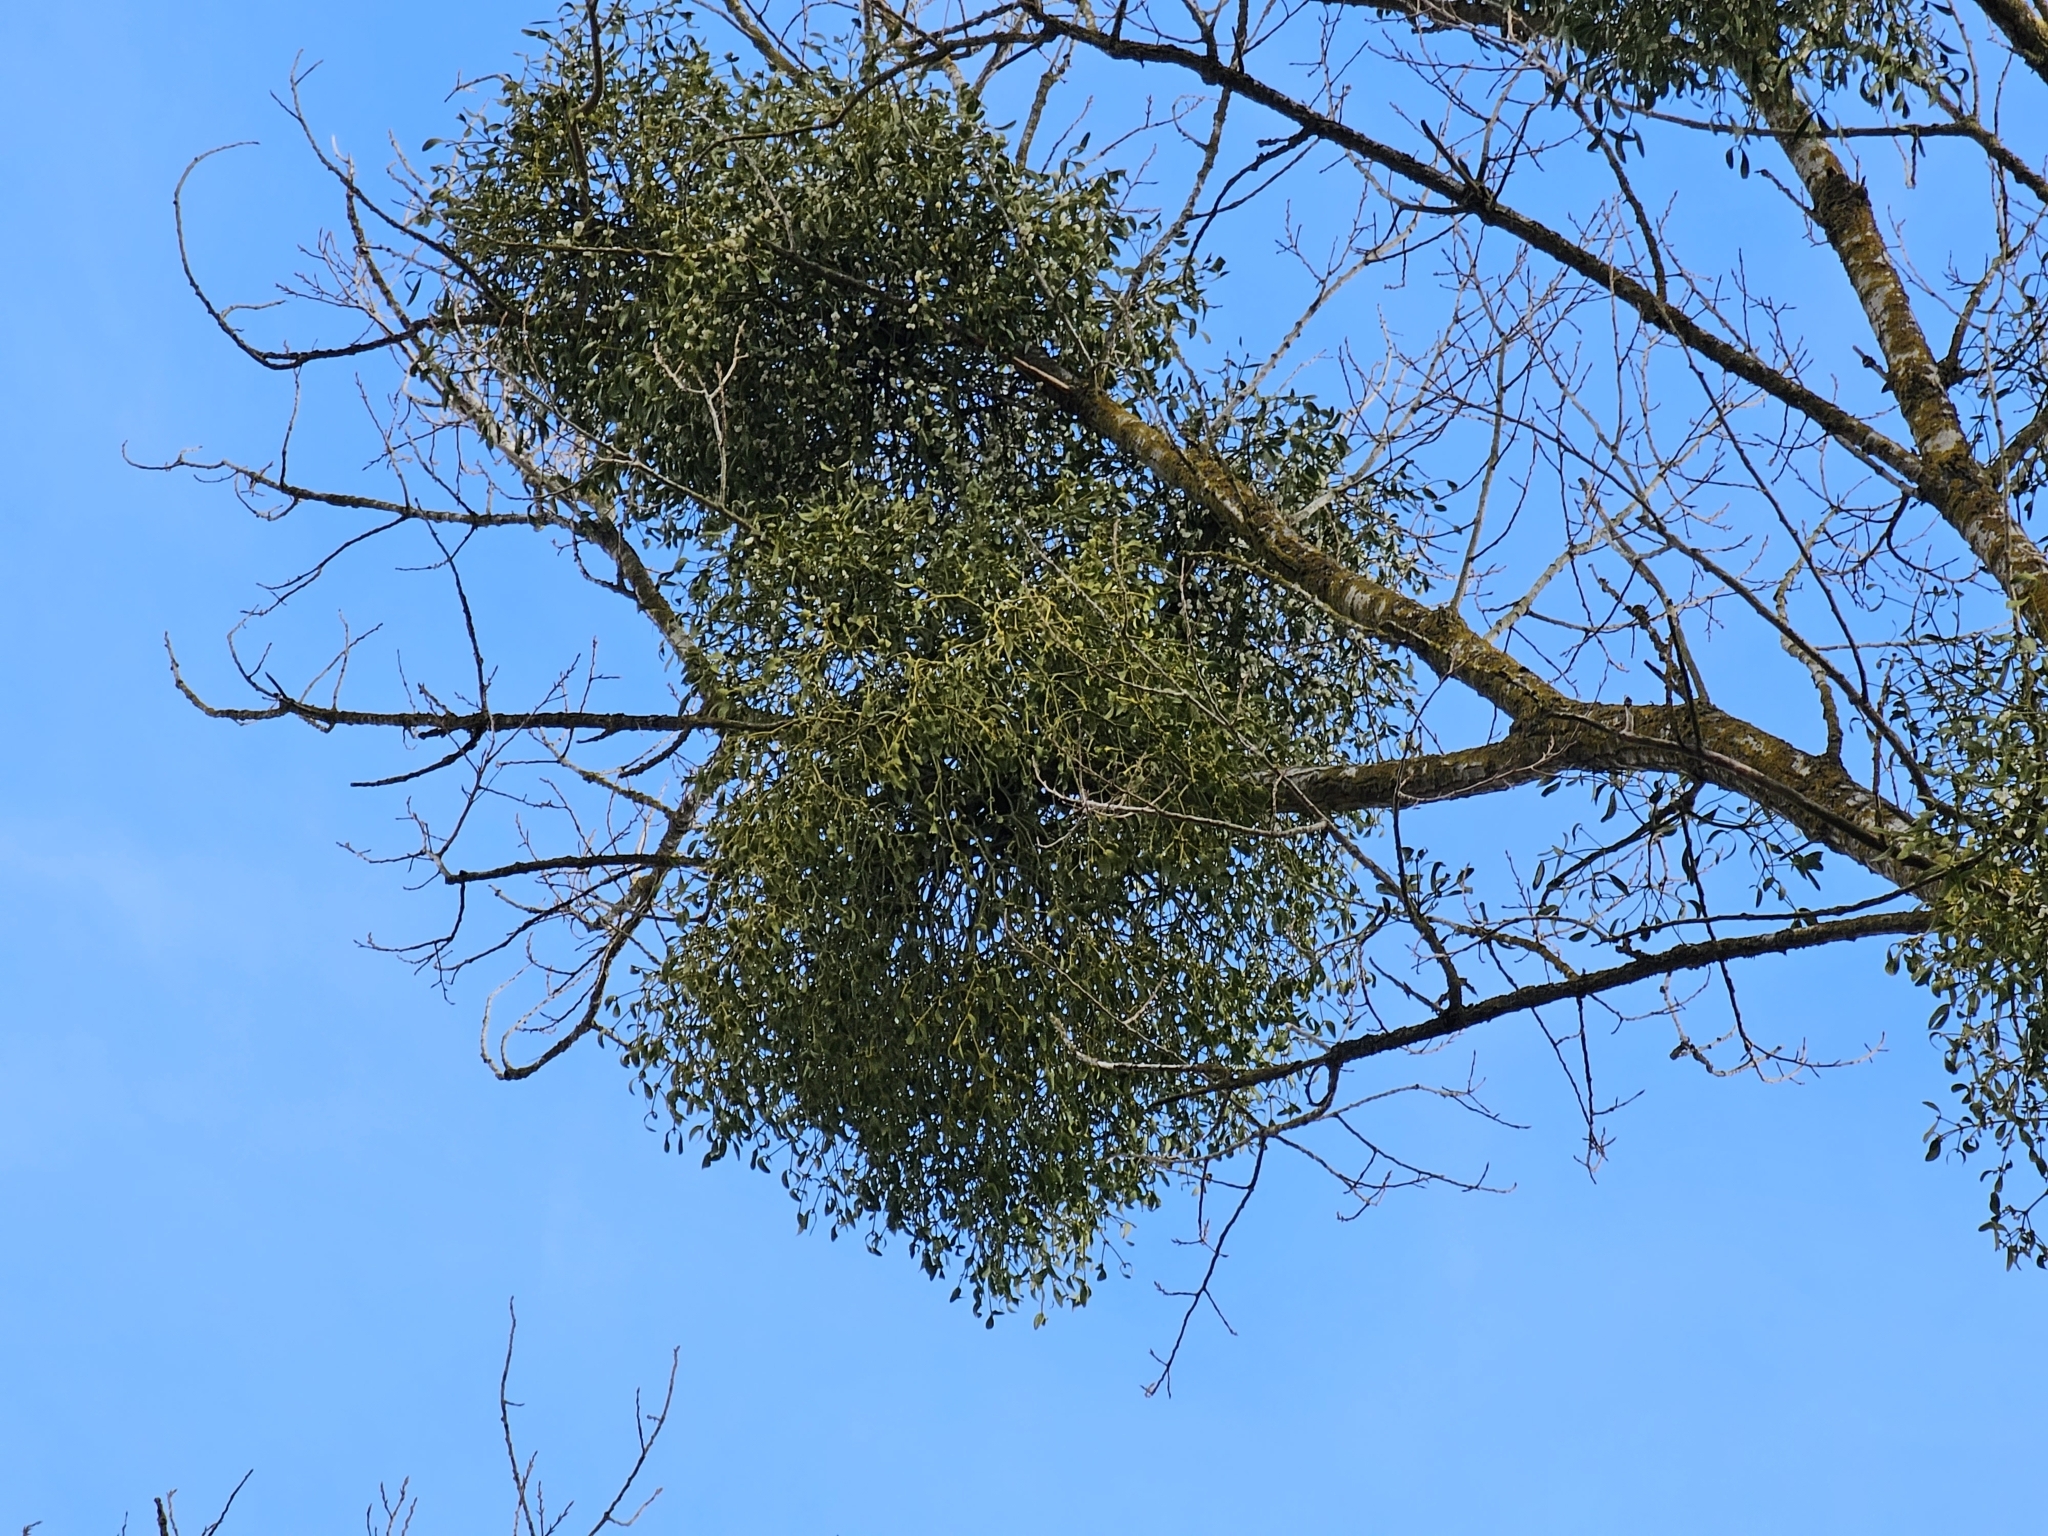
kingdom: Plantae
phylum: Tracheophyta
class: Magnoliopsida
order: Santalales
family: Viscaceae
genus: Viscum
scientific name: Viscum album
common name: Mistletoe
